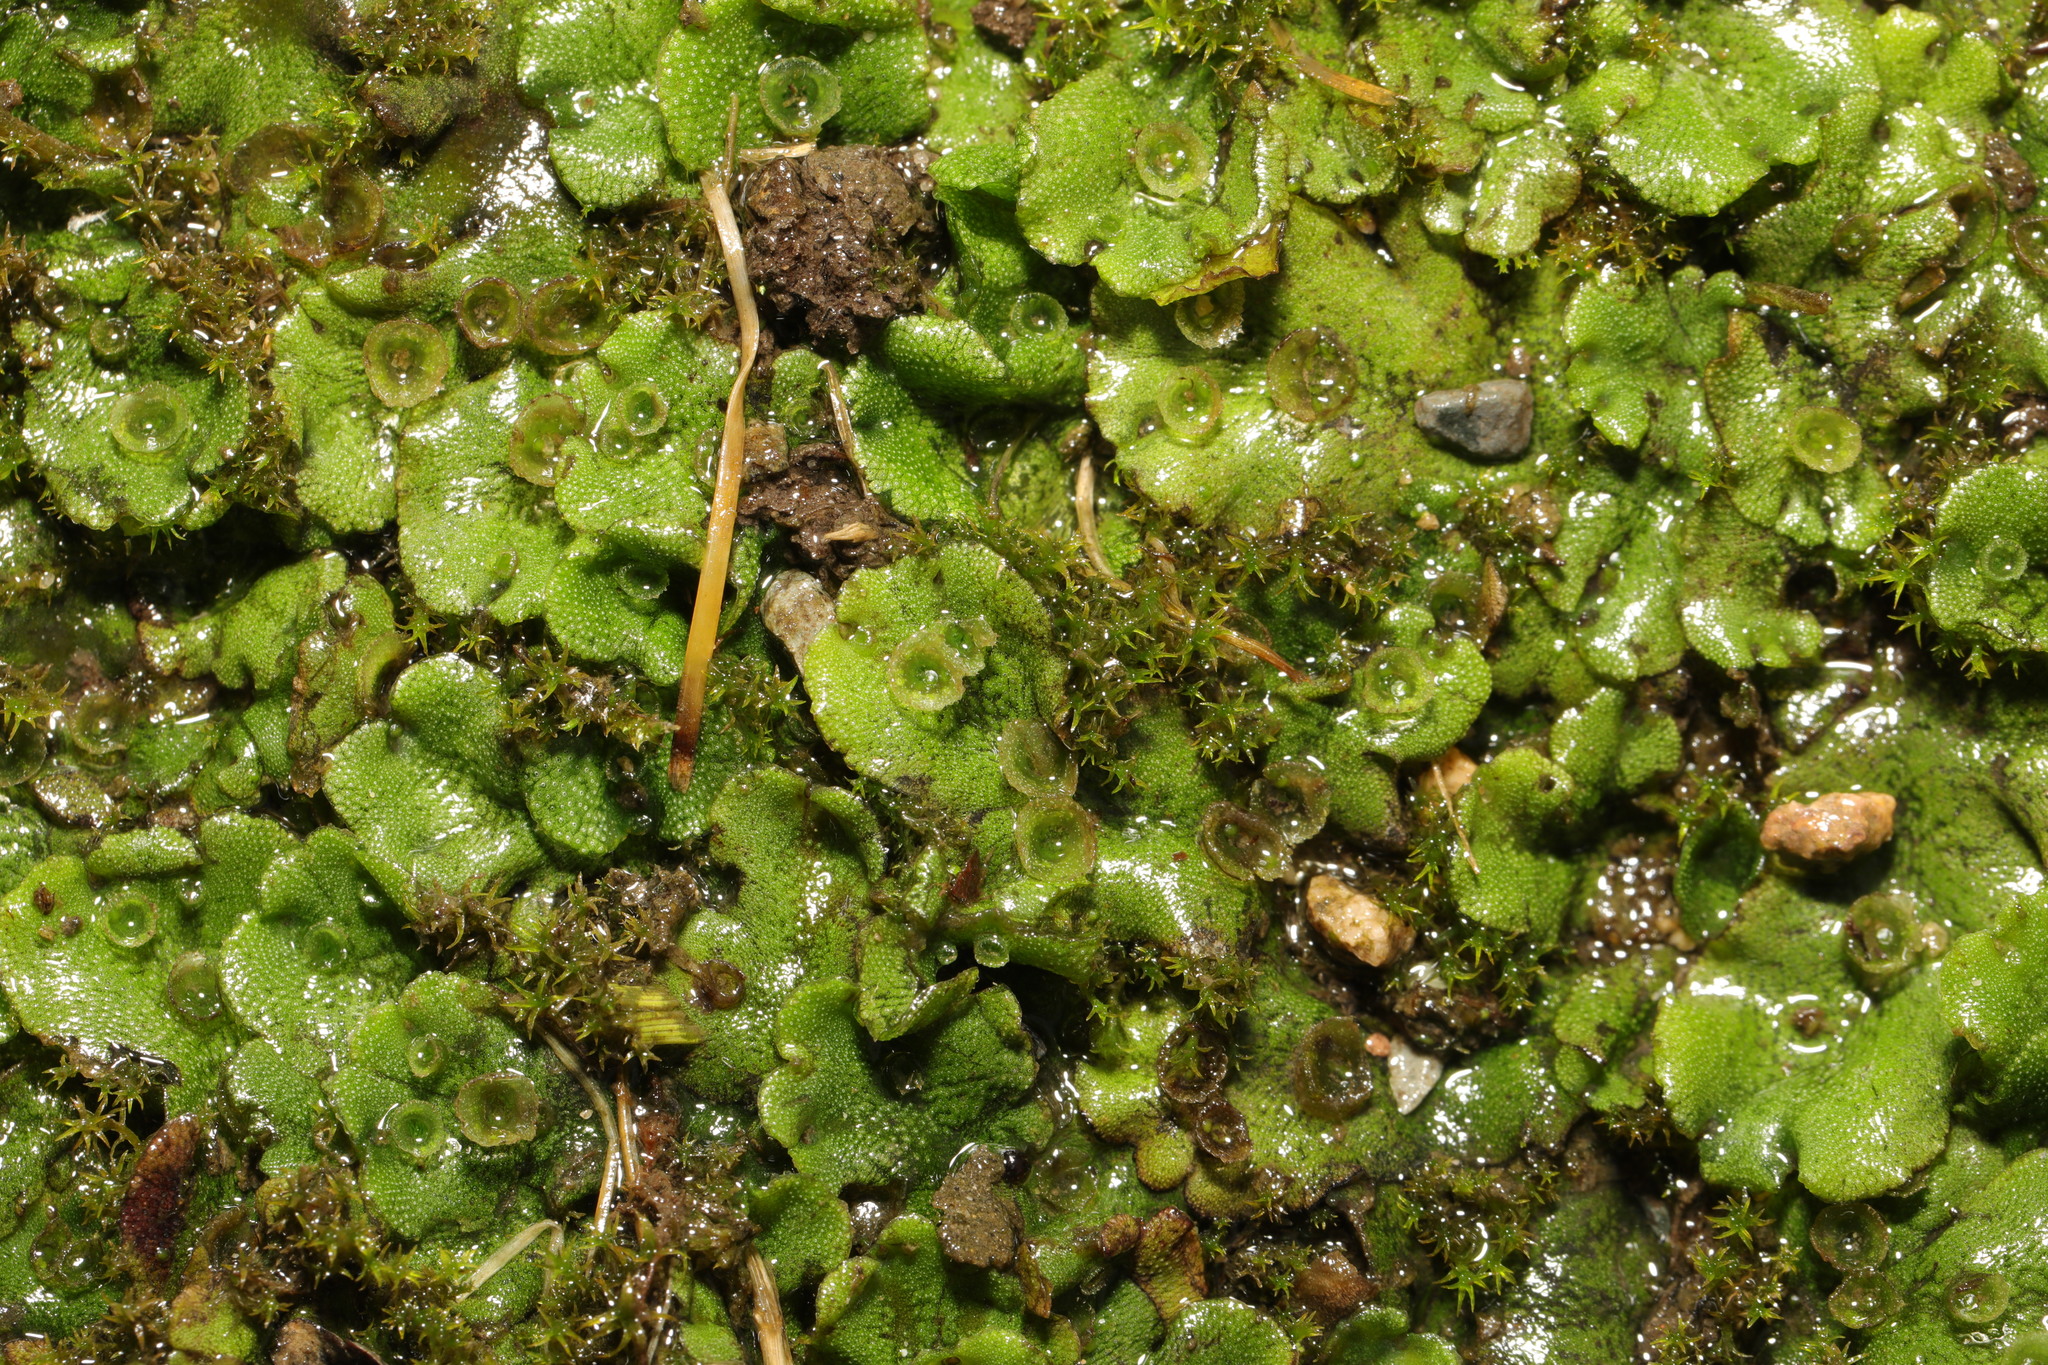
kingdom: Plantae
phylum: Marchantiophyta
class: Marchantiopsida
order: Marchantiales
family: Marchantiaceae
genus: Marchantia
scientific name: Marchantia polymorpha
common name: Common liverwort
